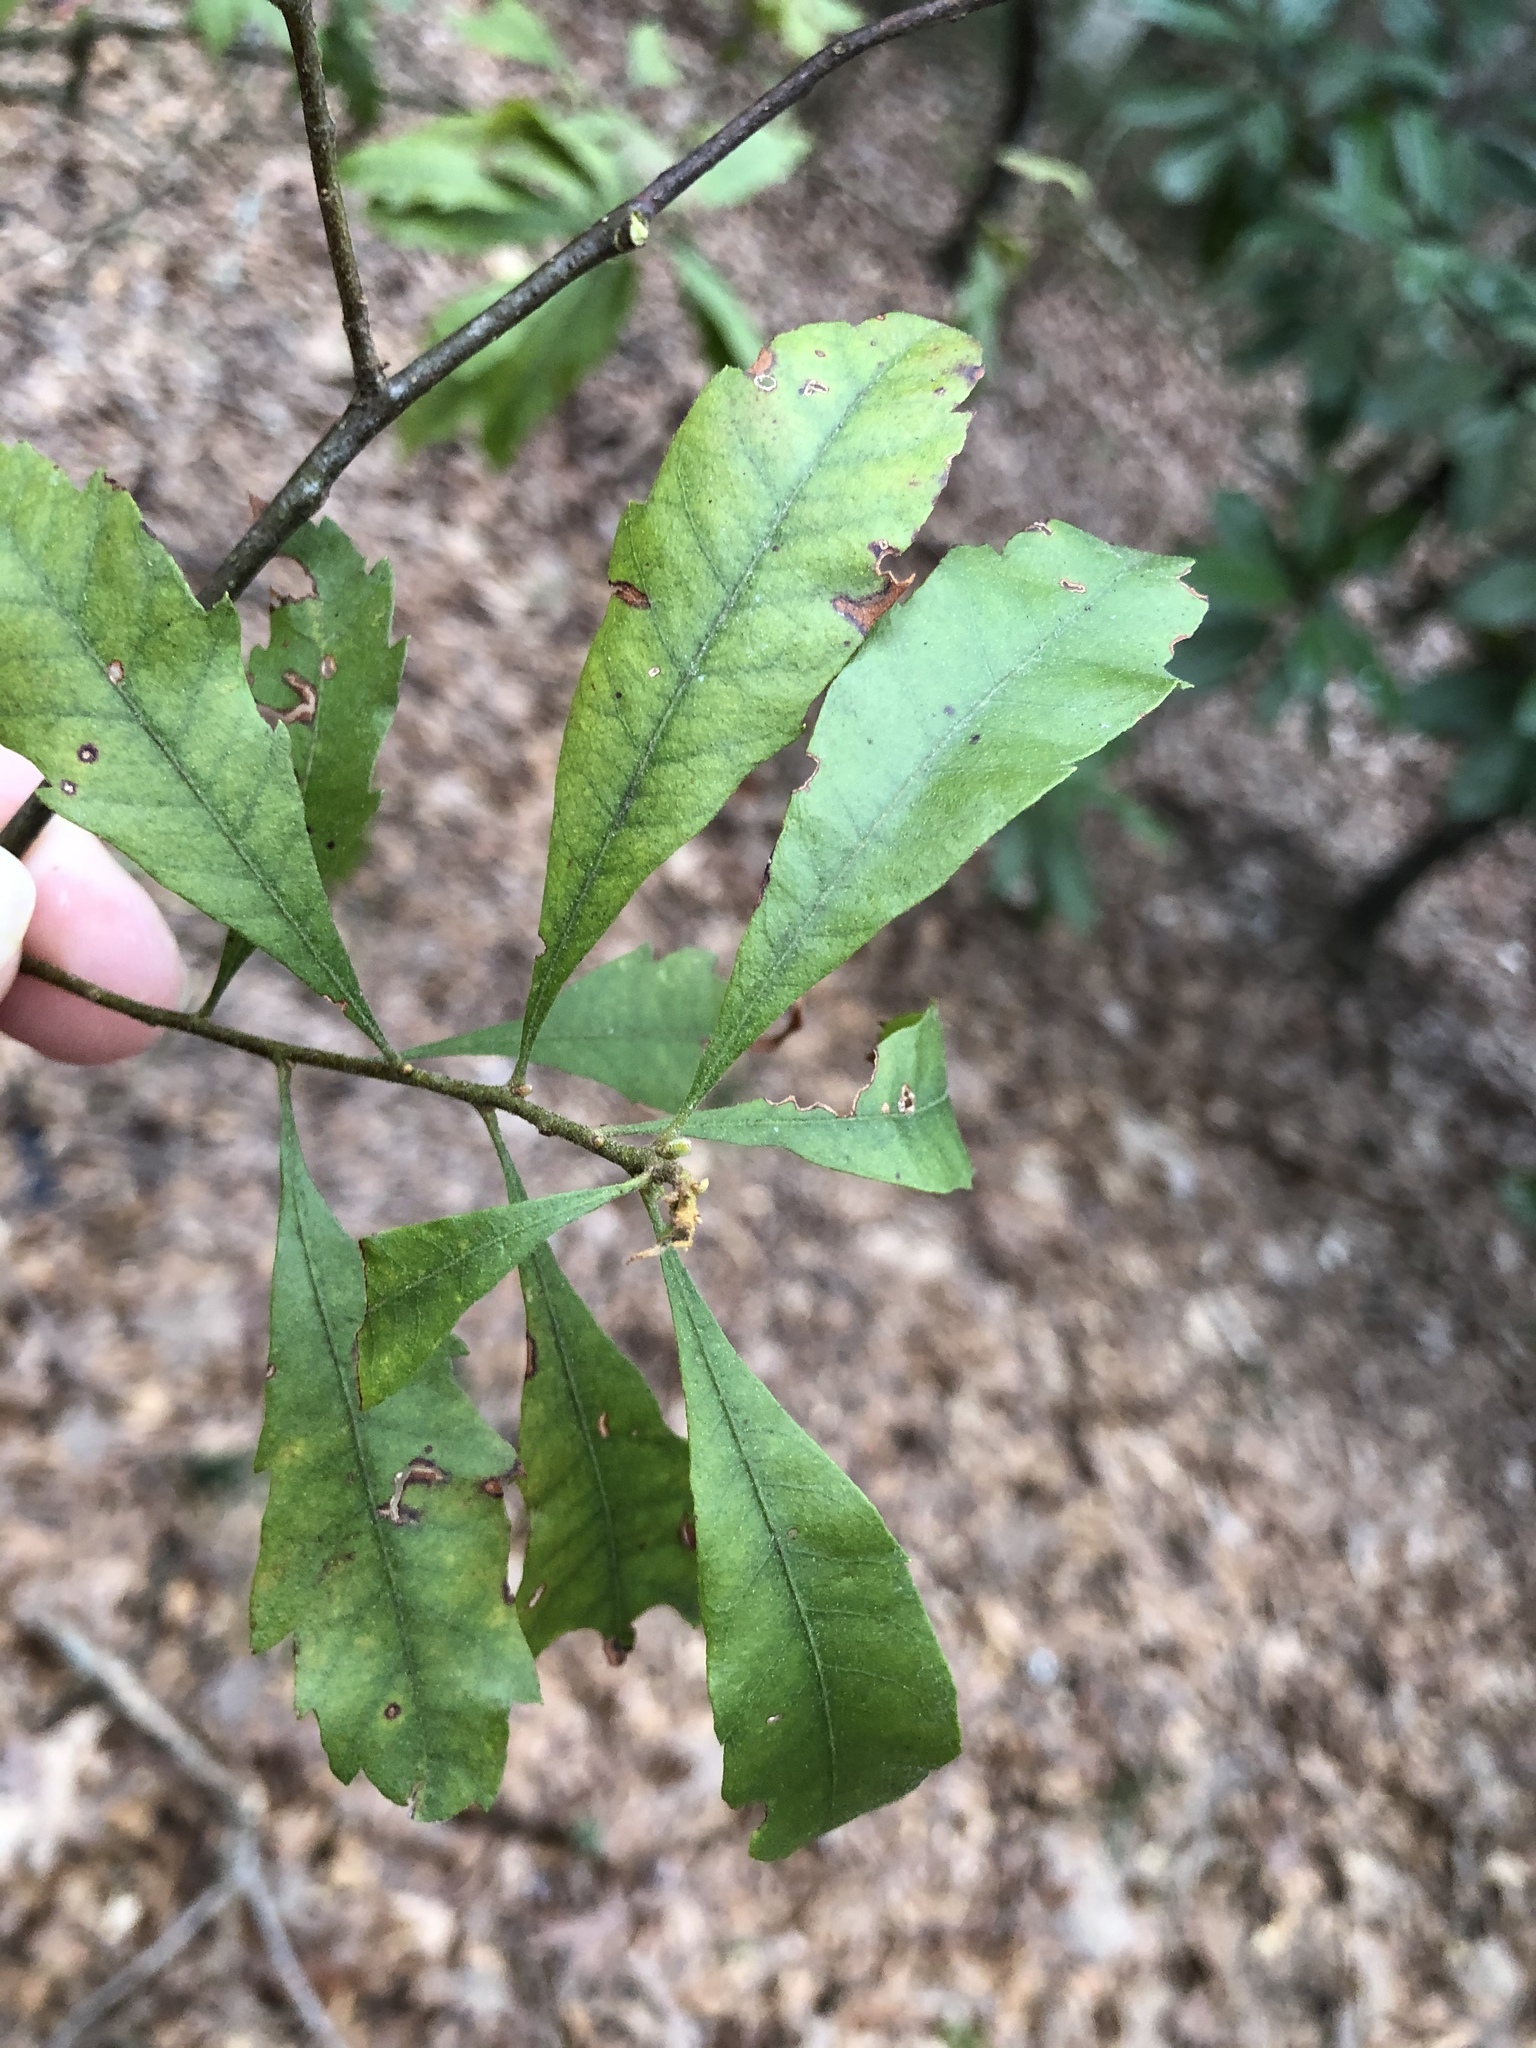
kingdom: Plantae
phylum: Tracheophyta
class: Magnoliopsida
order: Fagales
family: Myricaceae
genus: Morella
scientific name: Morella cerifera
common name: Wax myrtle
